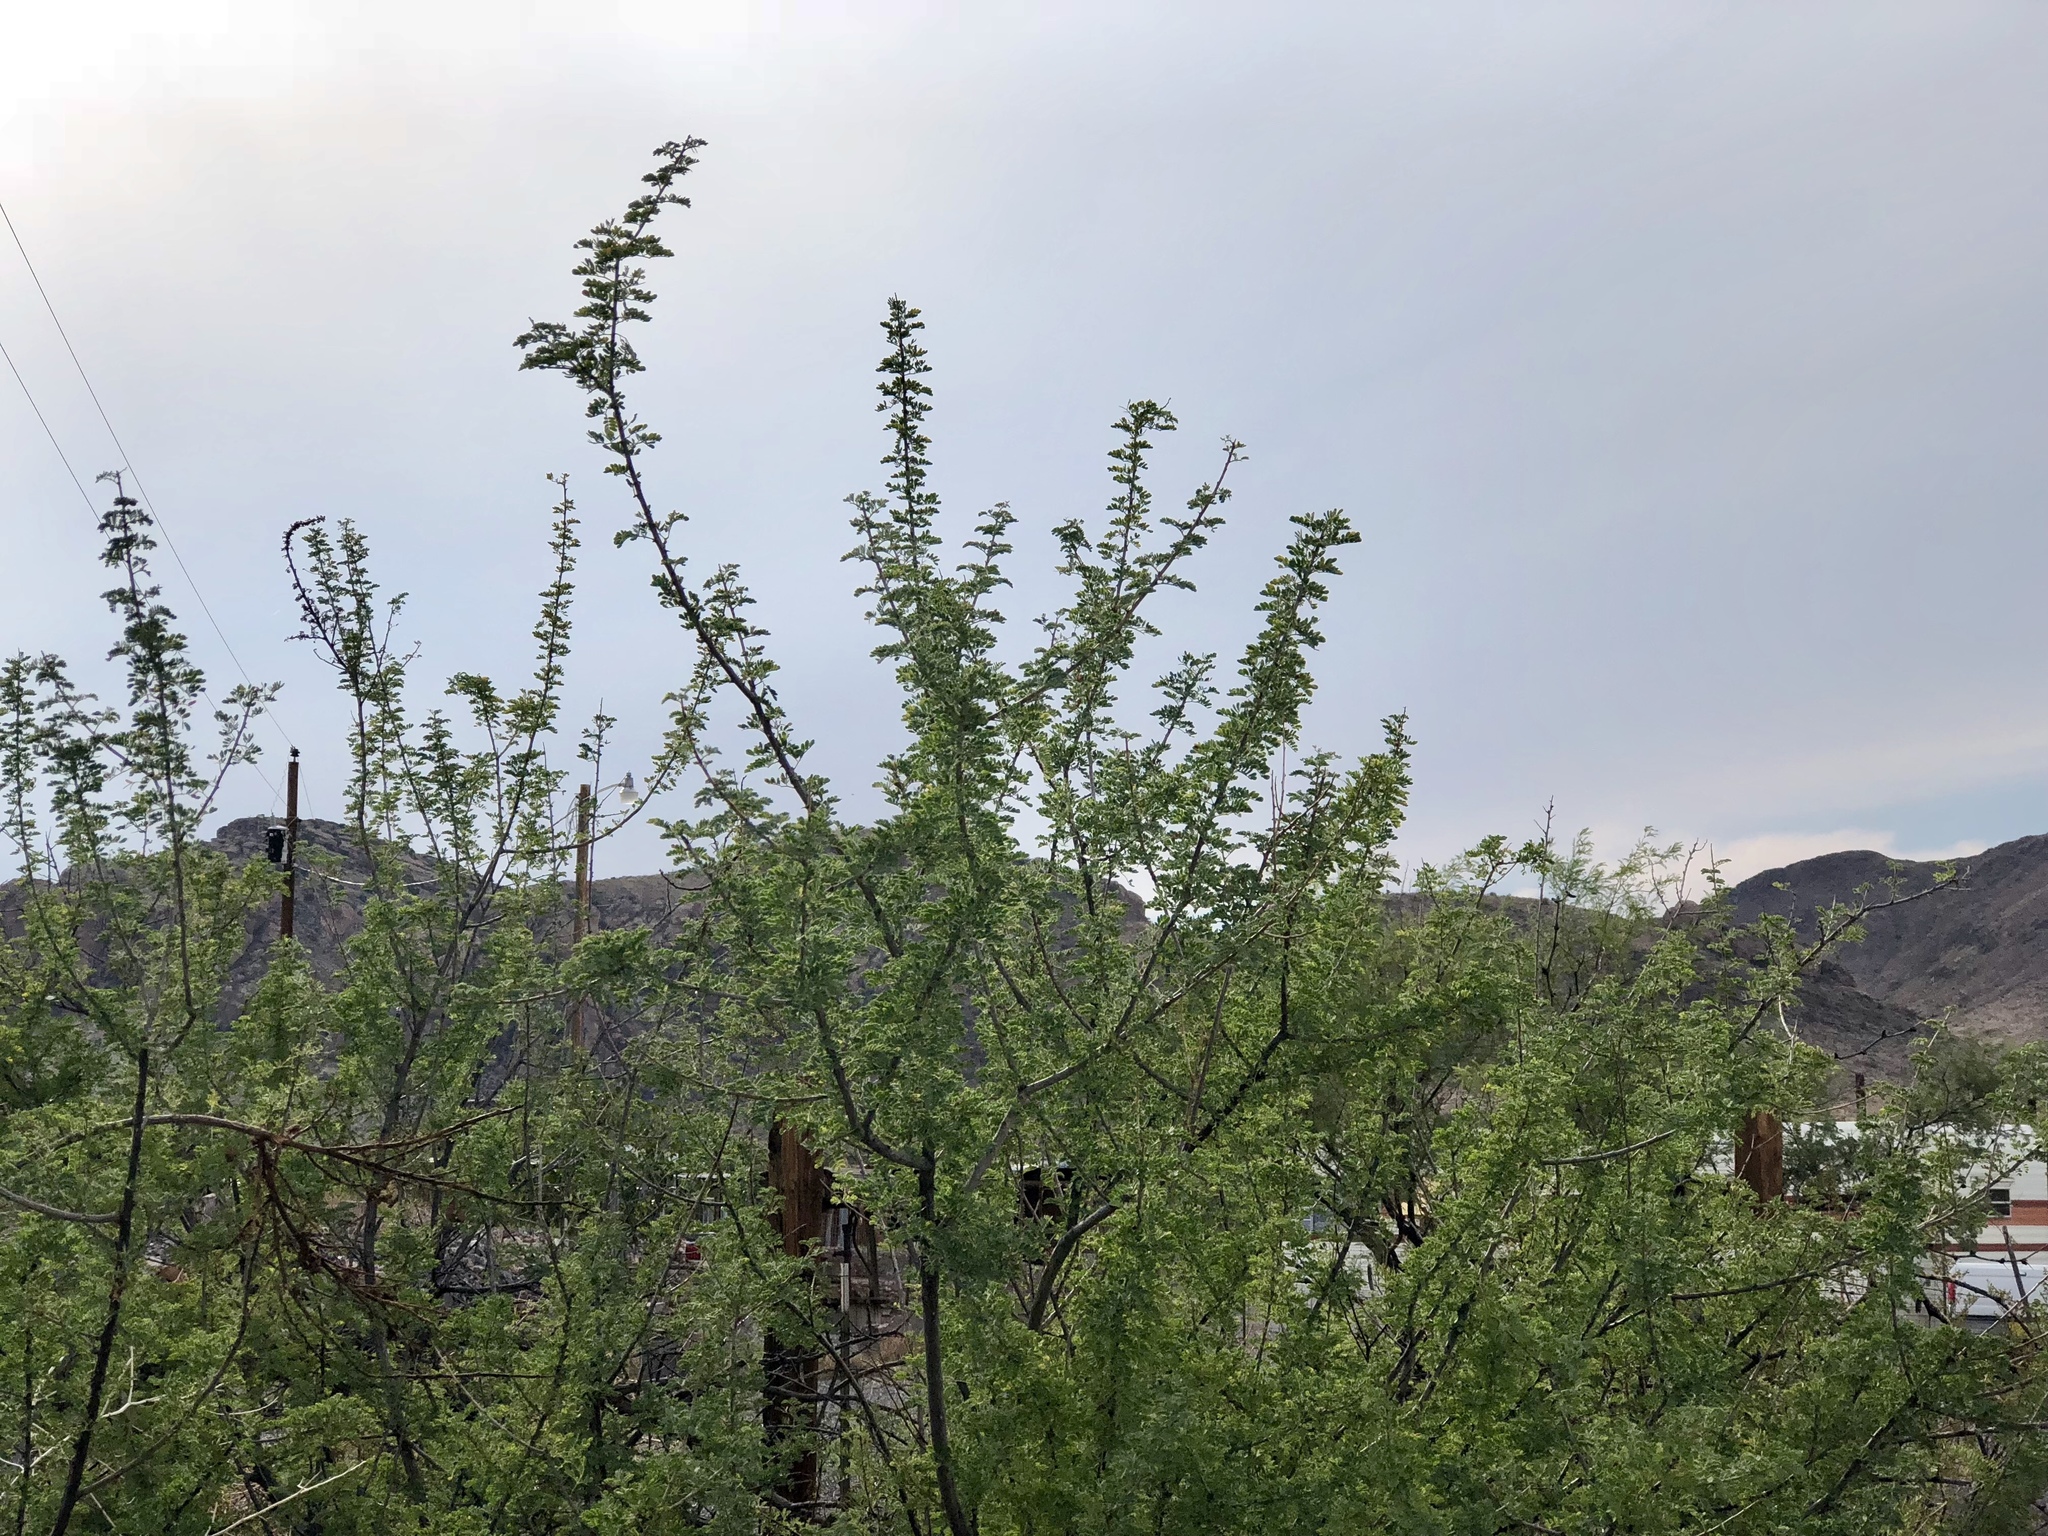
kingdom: Plantae
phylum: Tracheophyta
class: Magnoliopsida
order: Fabales
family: Fabaceae
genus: Senegalia
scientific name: Senegalia greggii
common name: Texas-mimosa
